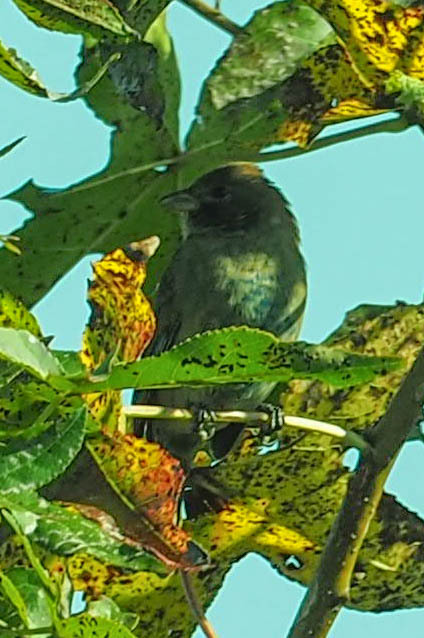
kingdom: Animalia
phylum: Chordata
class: Aves
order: Passeriformes
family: Cardinalidae
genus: Passerina
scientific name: Passerina cyanea
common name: Indigo bunting
